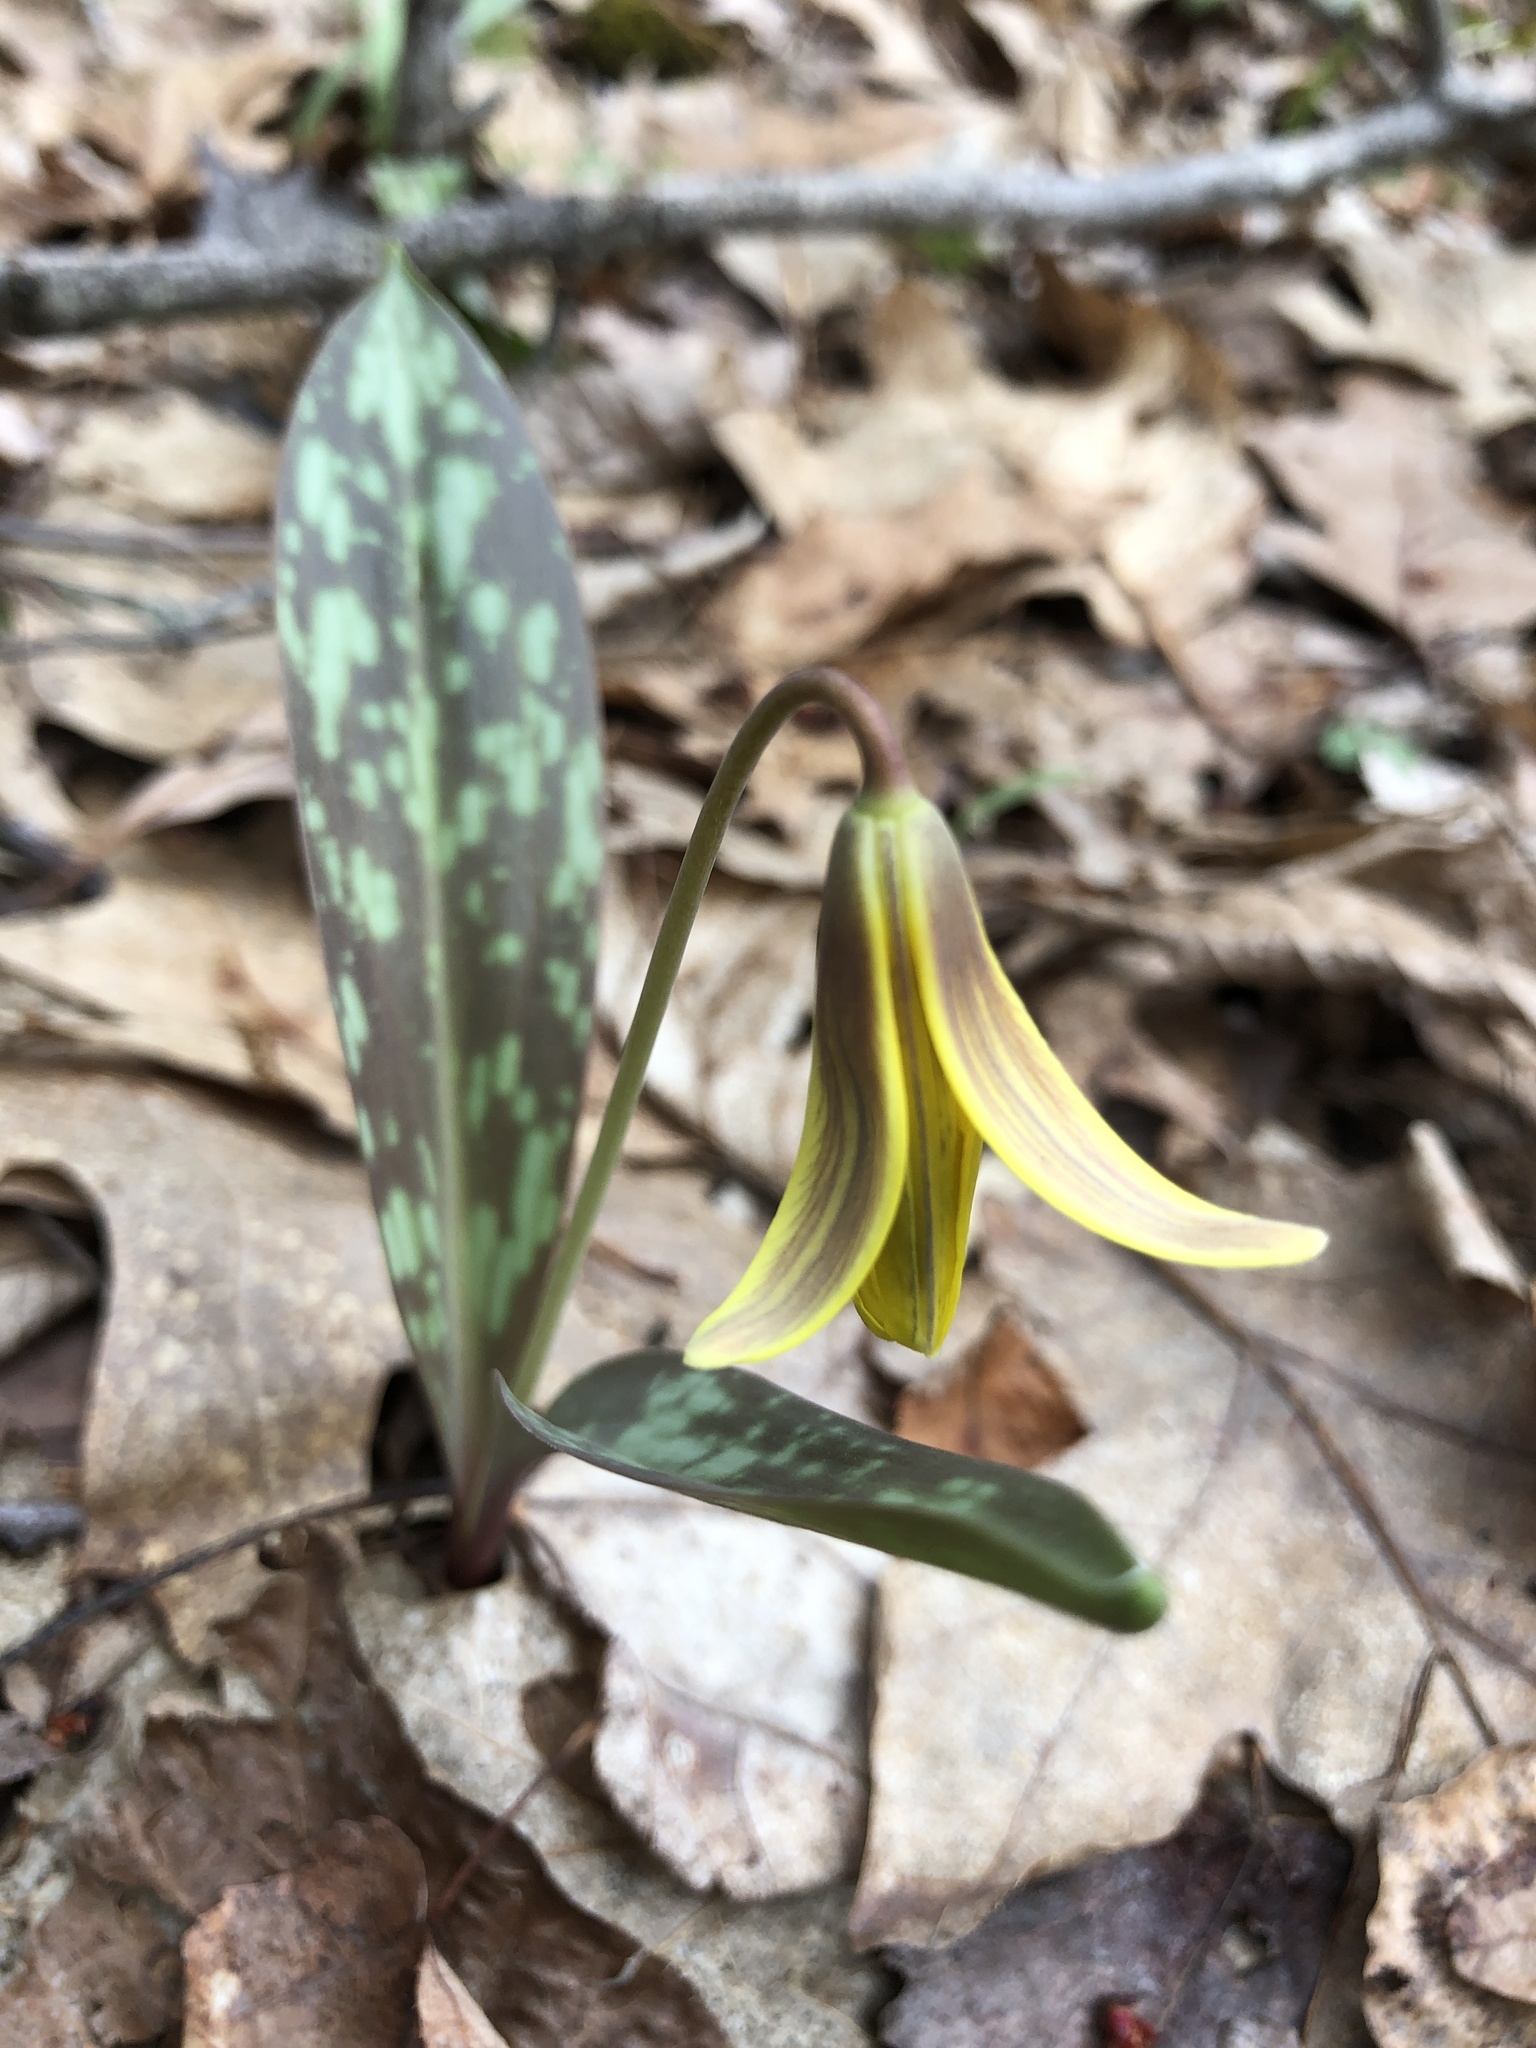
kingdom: Plantae
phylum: Tracheophyta
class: Liliopsida
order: Liliales
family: Liliaceae
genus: Erythronium
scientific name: Erythronium americanum
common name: Yellow adder's-tongue
